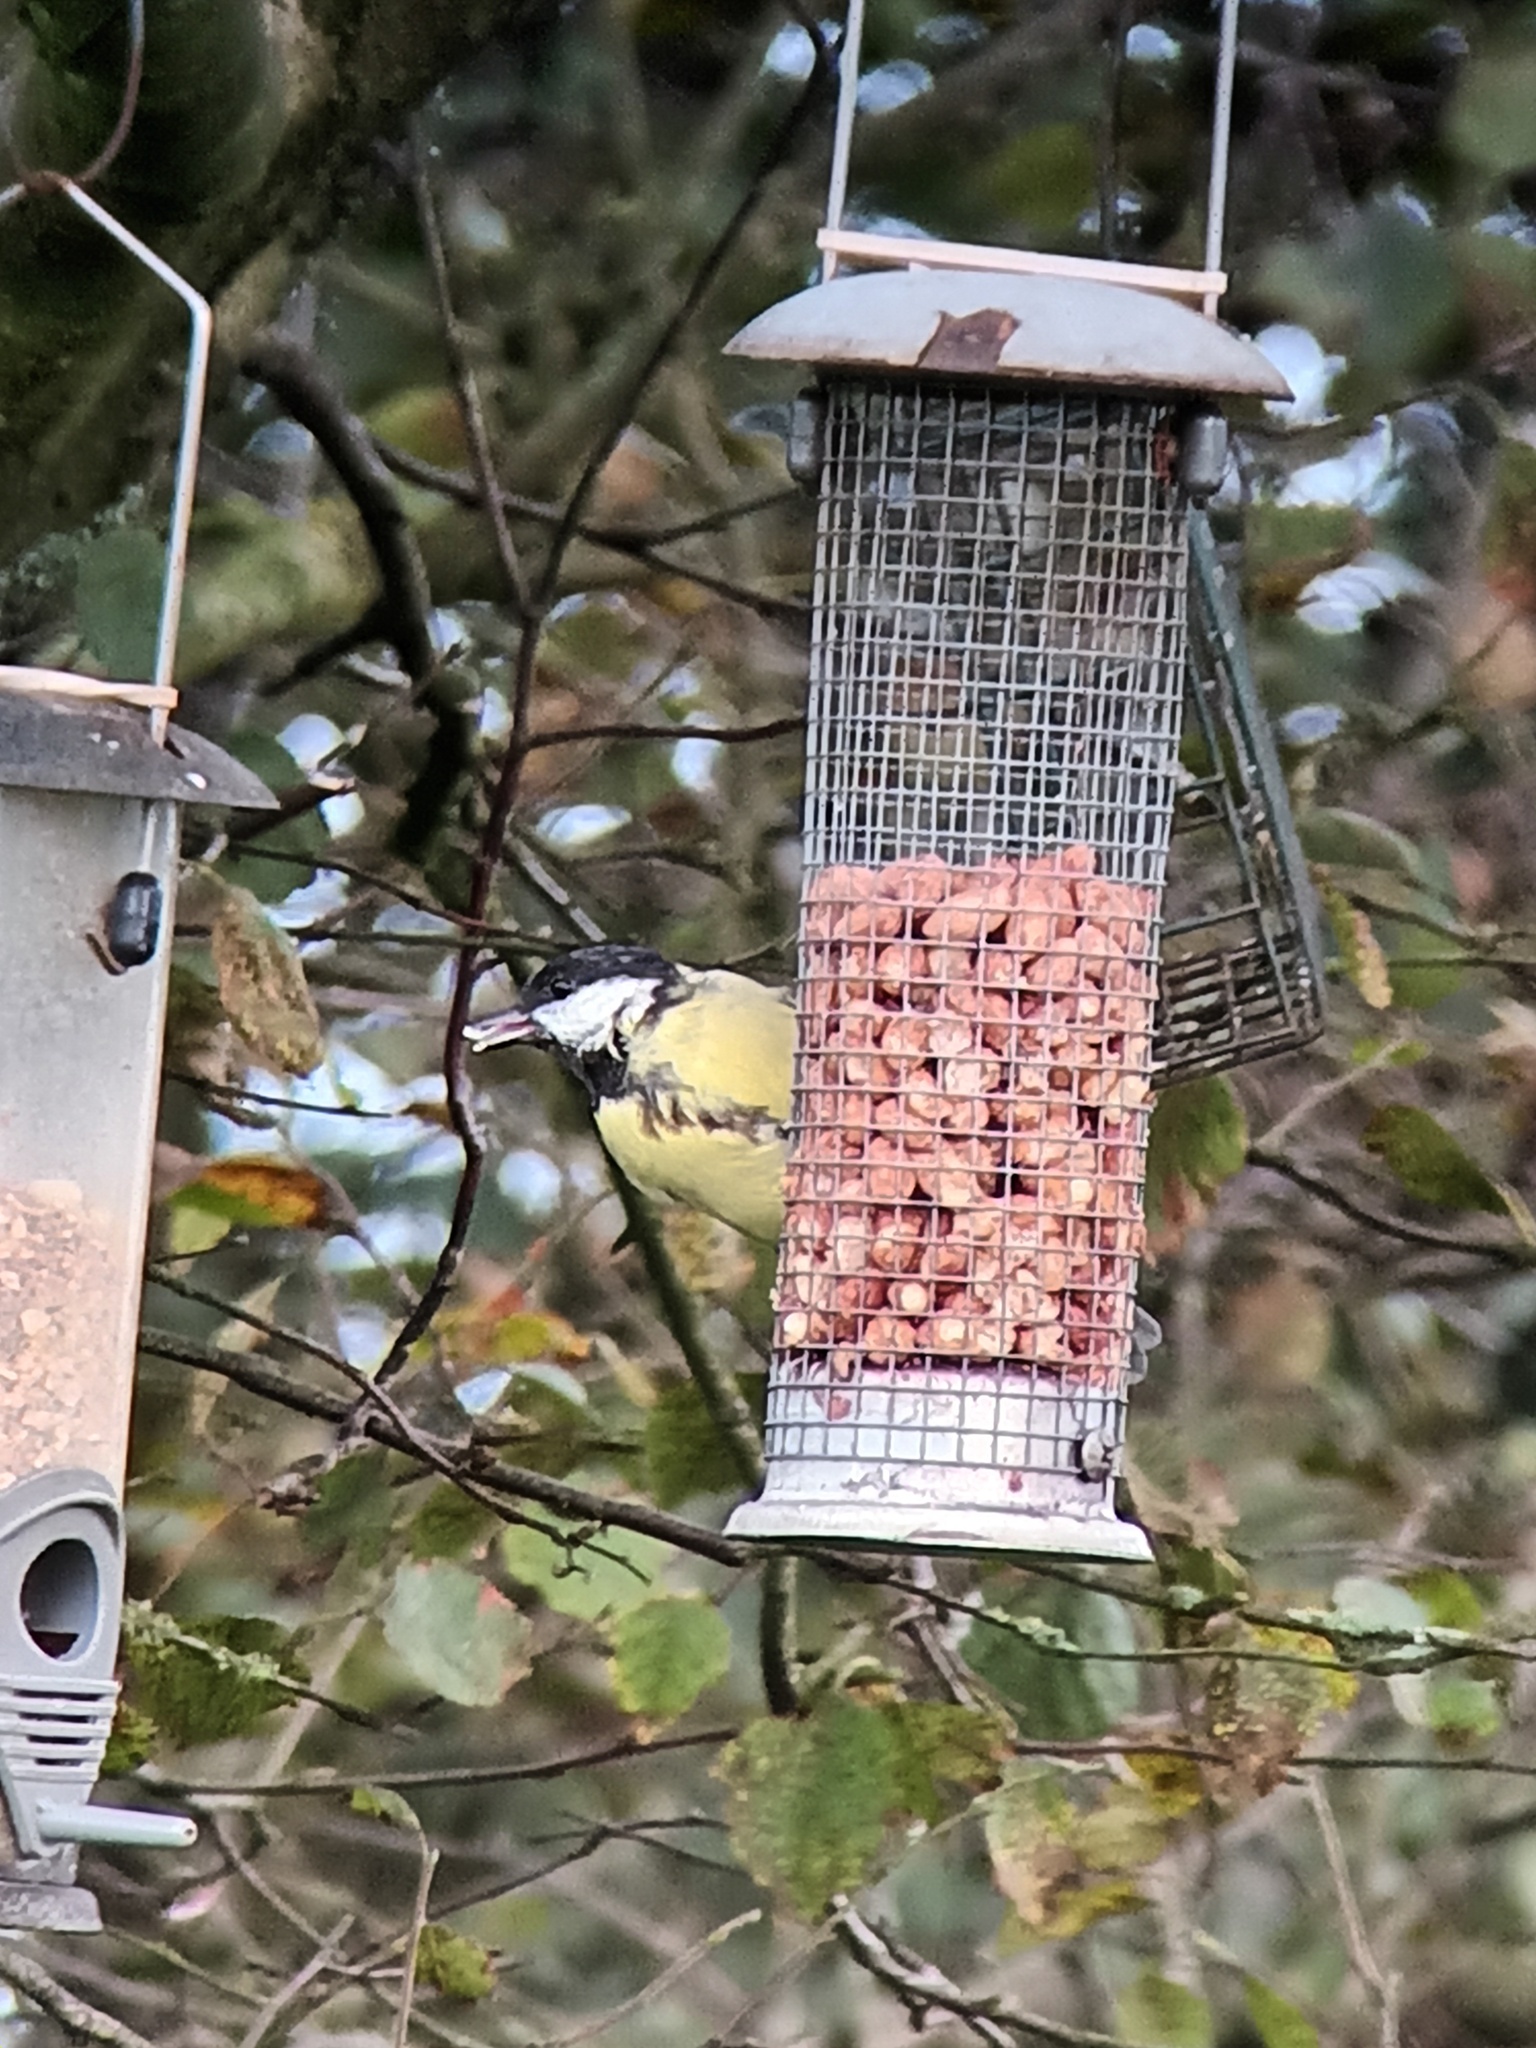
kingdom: Animalia
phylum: Chordata
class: Aves
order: Passeriformes
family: Paridae
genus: Parus
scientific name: Parus major
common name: Great tit
